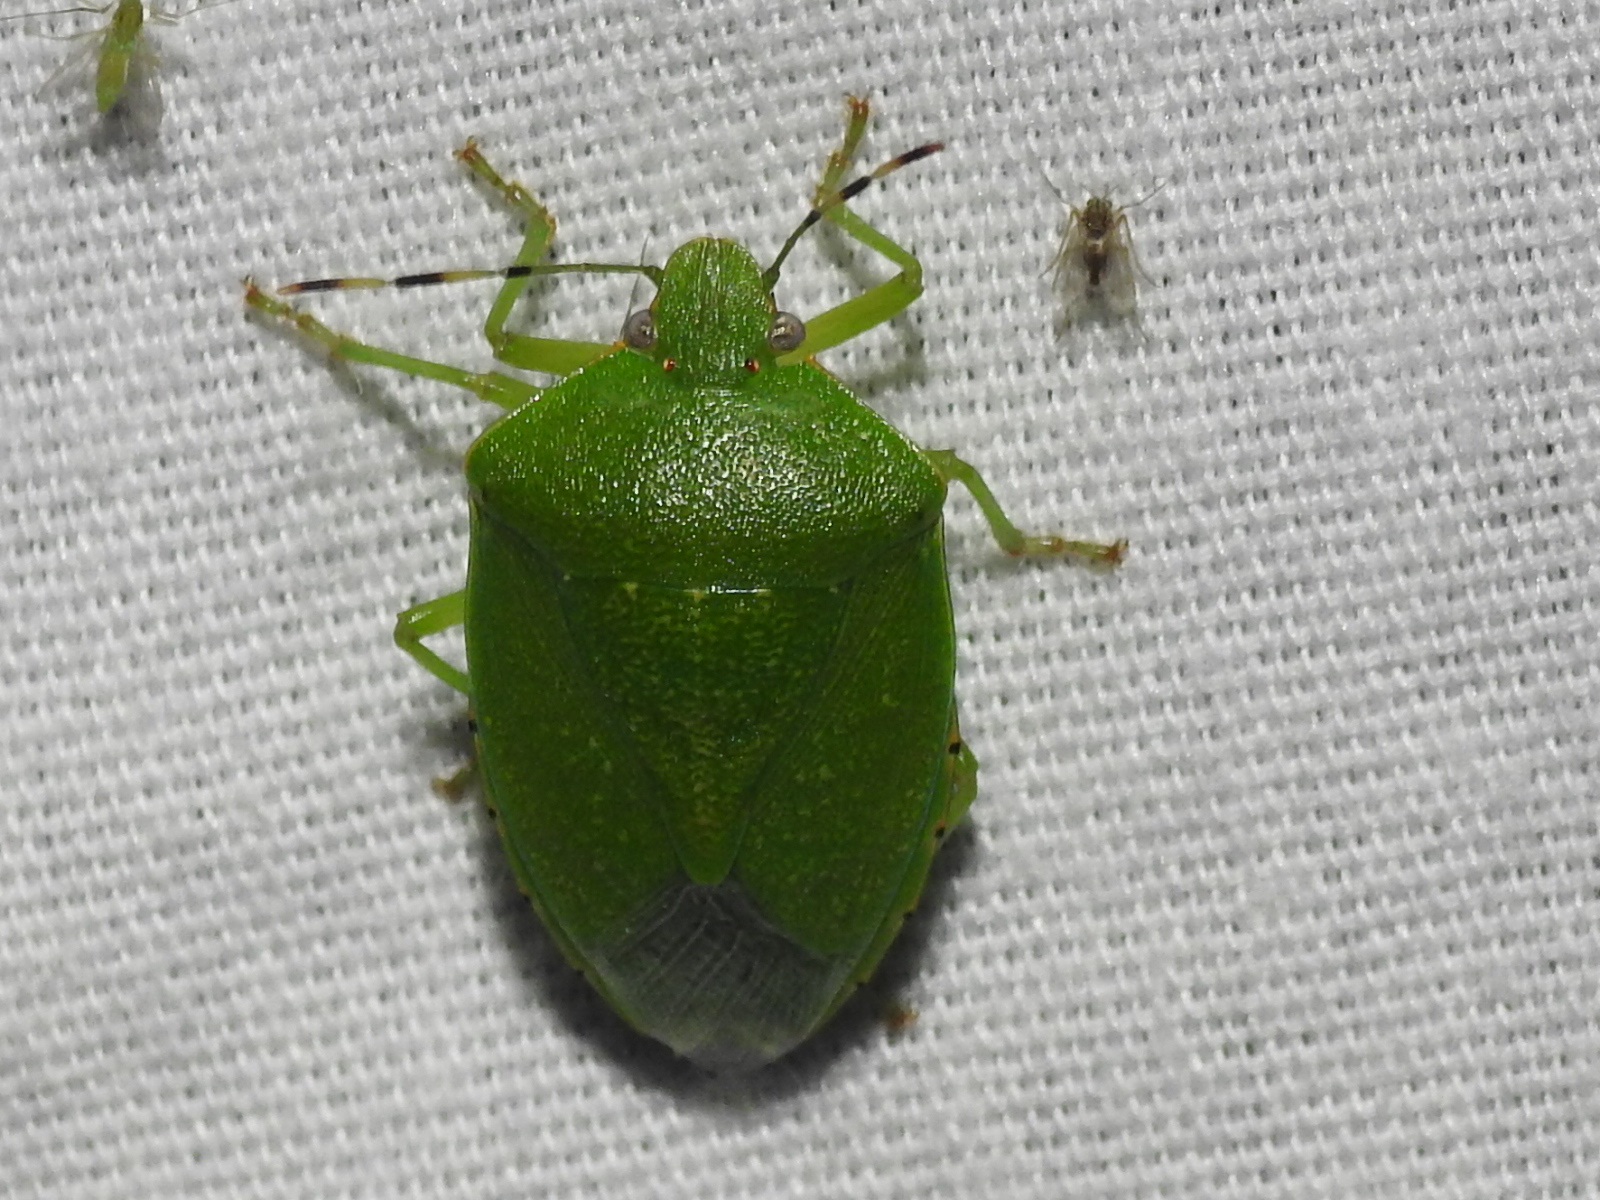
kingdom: Animalia
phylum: Arthropoda
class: Insecta
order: Hemiptera
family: Pentatomidae
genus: Chinavia
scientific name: Chinavia hilaris
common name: Green stink bug
